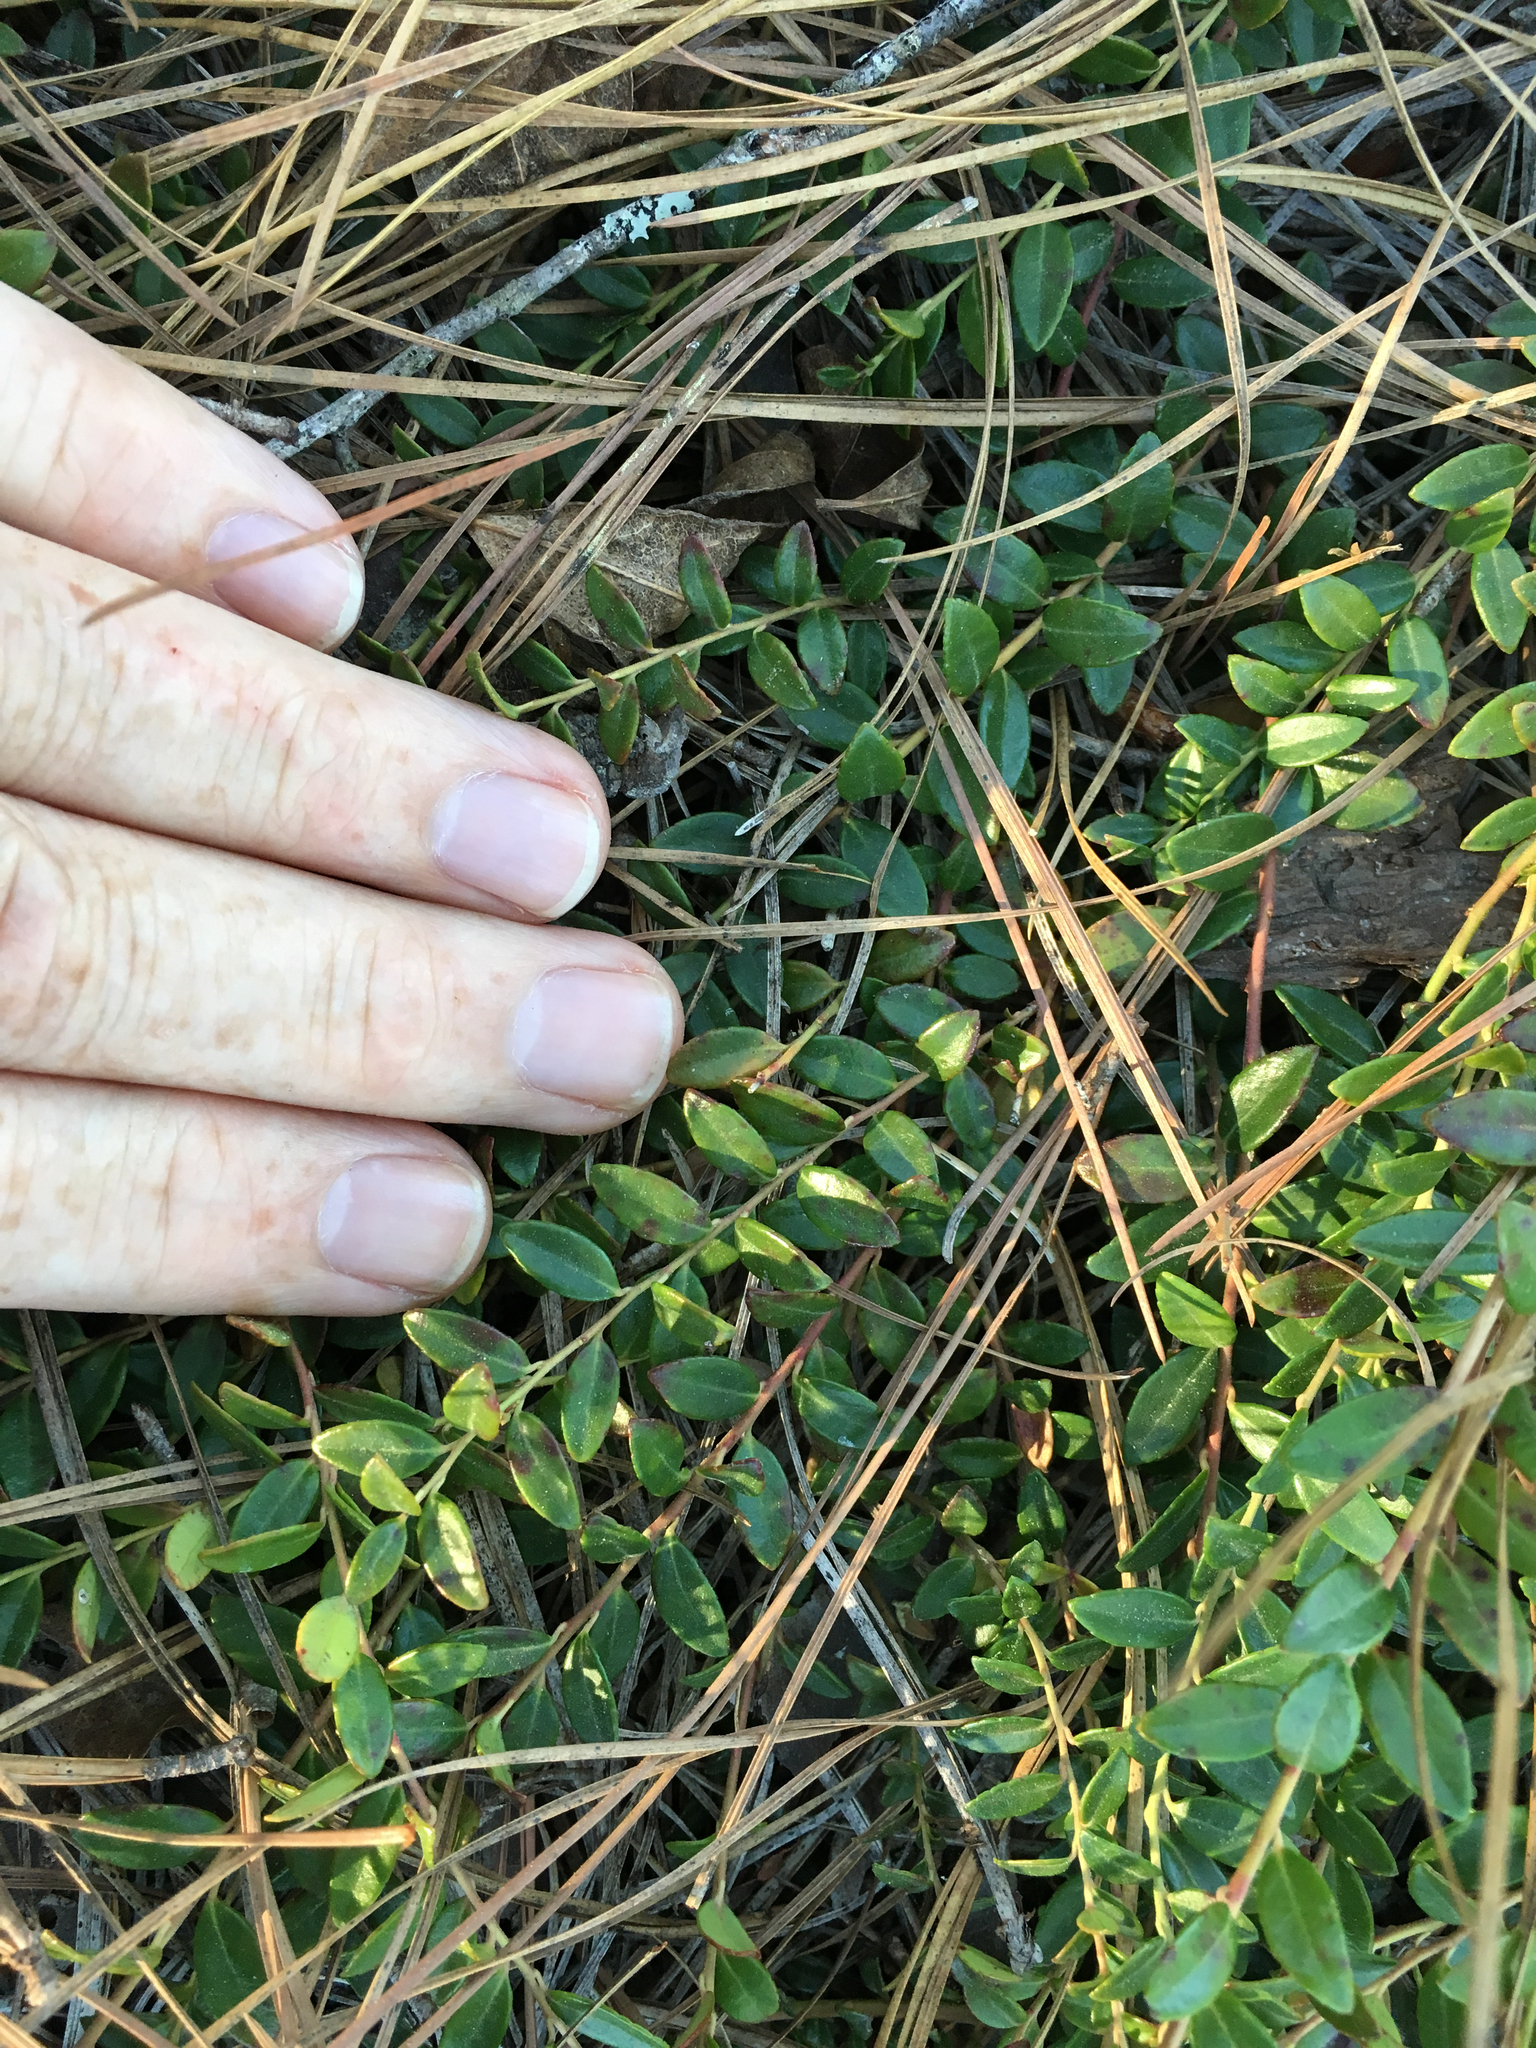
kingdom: Plantae
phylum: Tracheophyta
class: Magnoliopsida
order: Ericales
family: Ericaceae
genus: Vaccinium
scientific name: Vaccinium crassifolium
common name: Creeping blueberry
